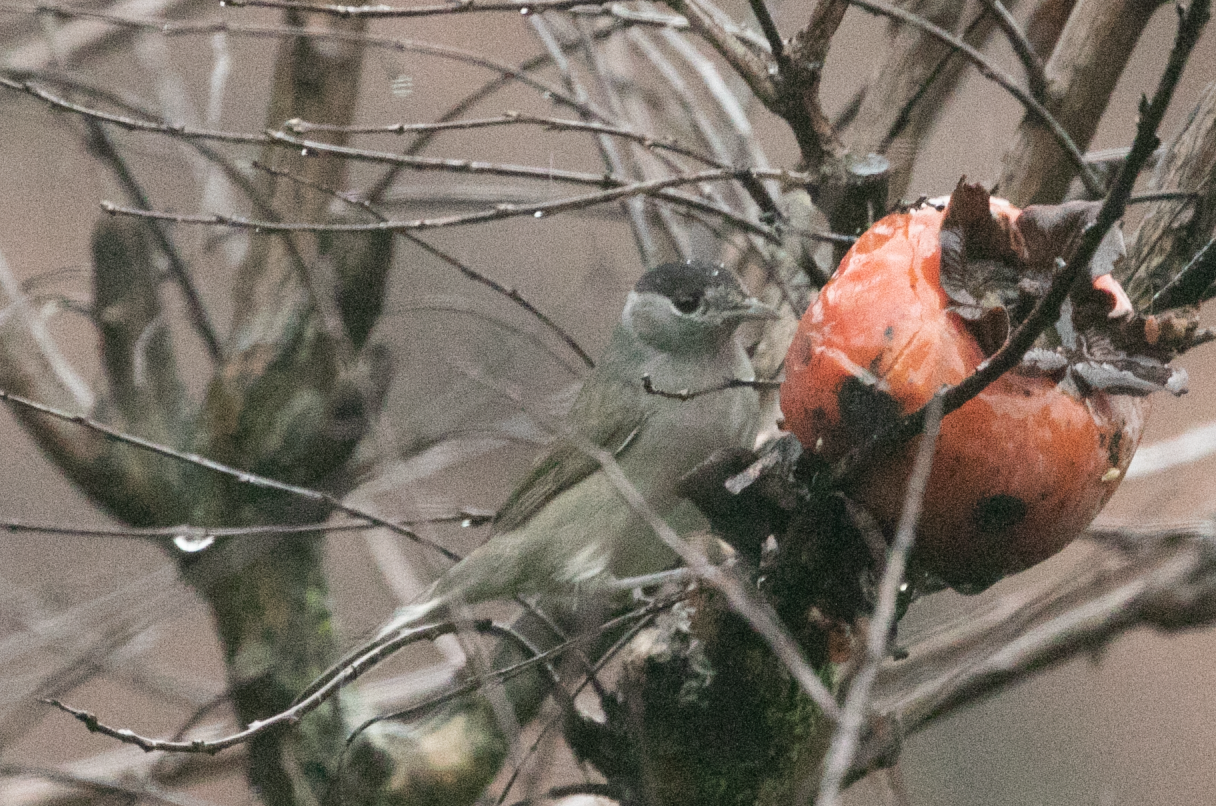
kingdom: Animalia
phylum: Chordata
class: Aves
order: Passeriformes
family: Sylviidae
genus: Sylvia
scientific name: Sylvia atricapilla
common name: Eurasian blackcap
